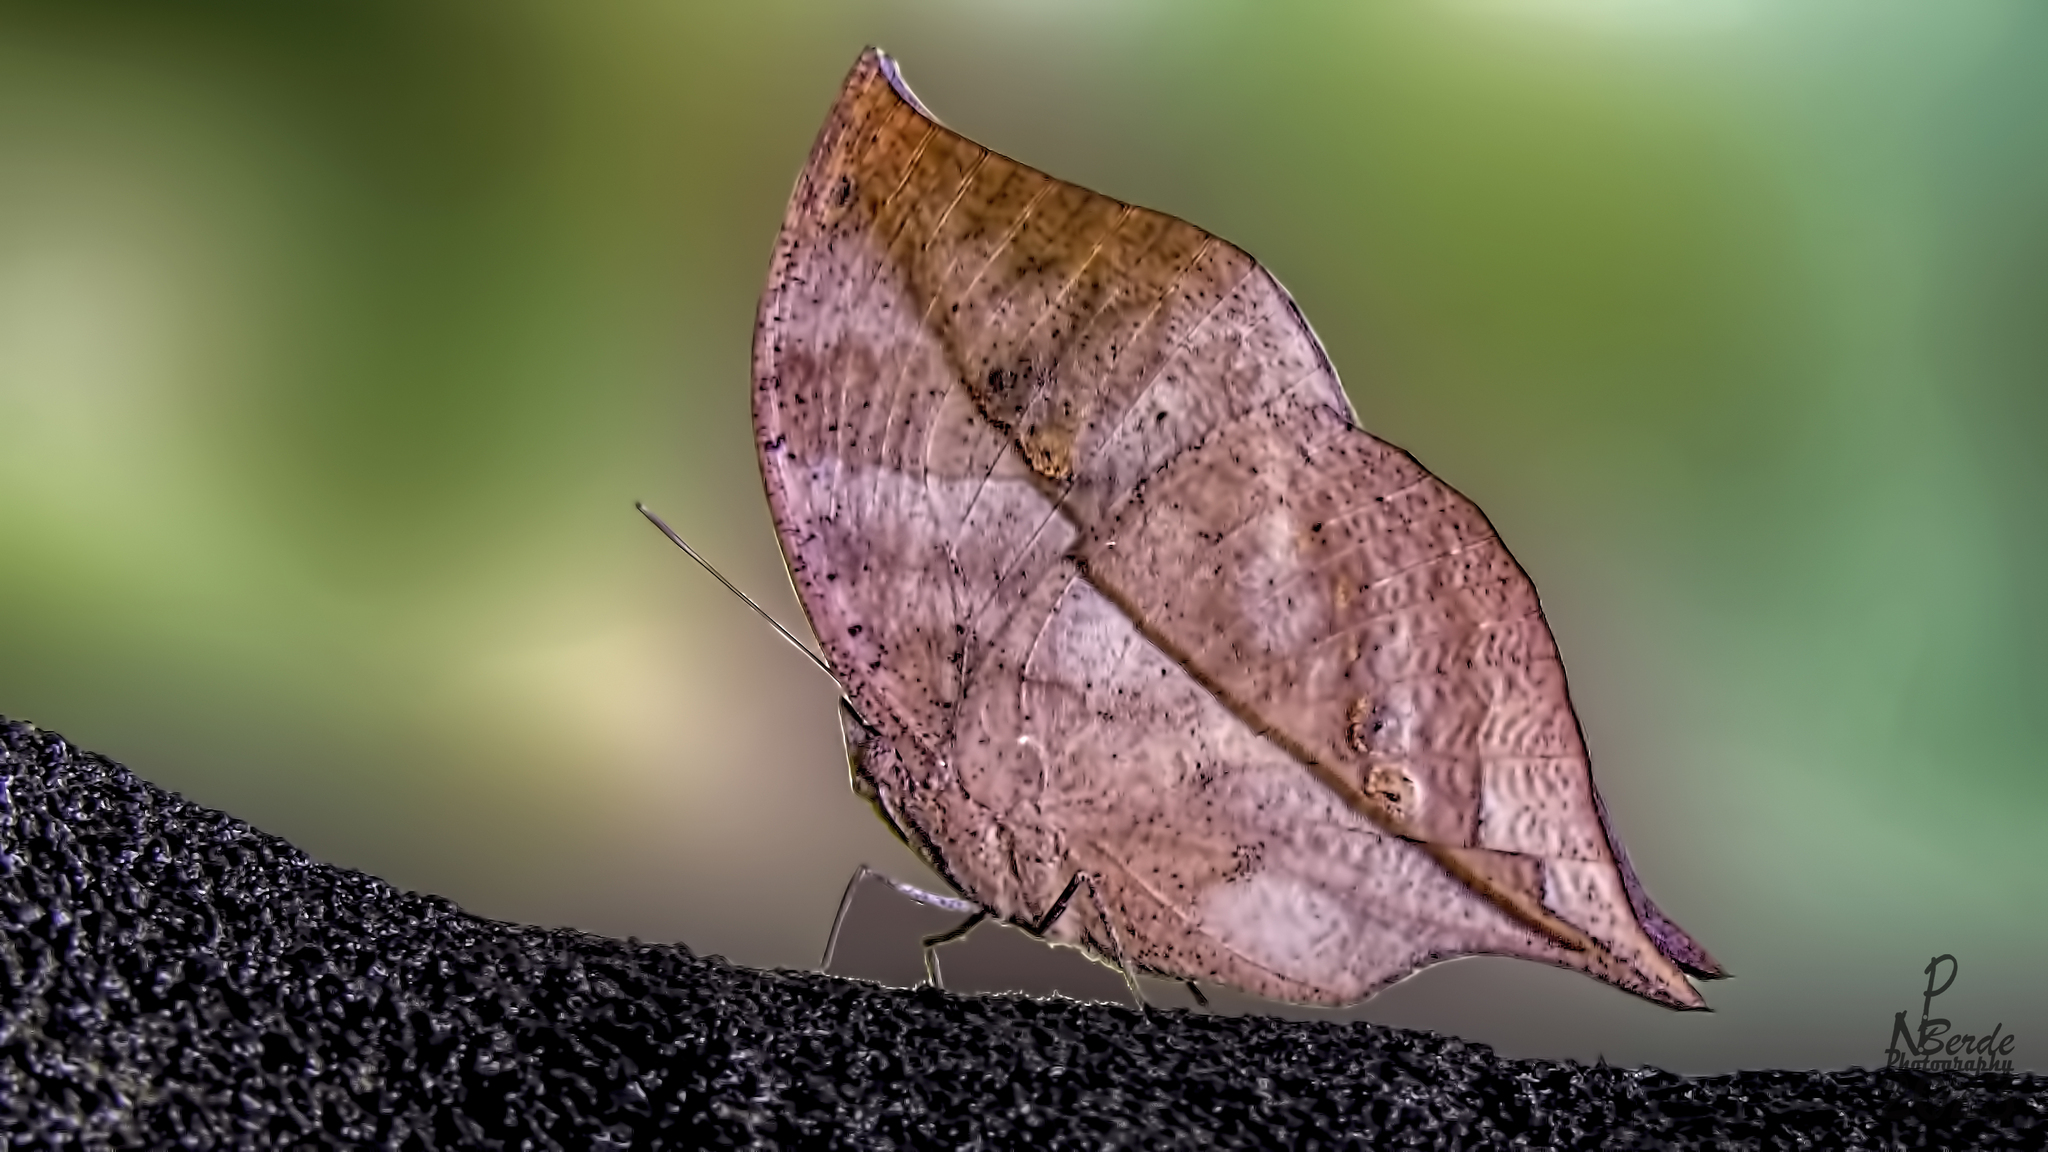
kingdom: Animalia
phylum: Arthropoda
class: Insecta
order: Lepidoptera
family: Nymphalidae
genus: Kallima
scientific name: Kallima horsfieldii
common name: Sahyadri blue oakleaf
